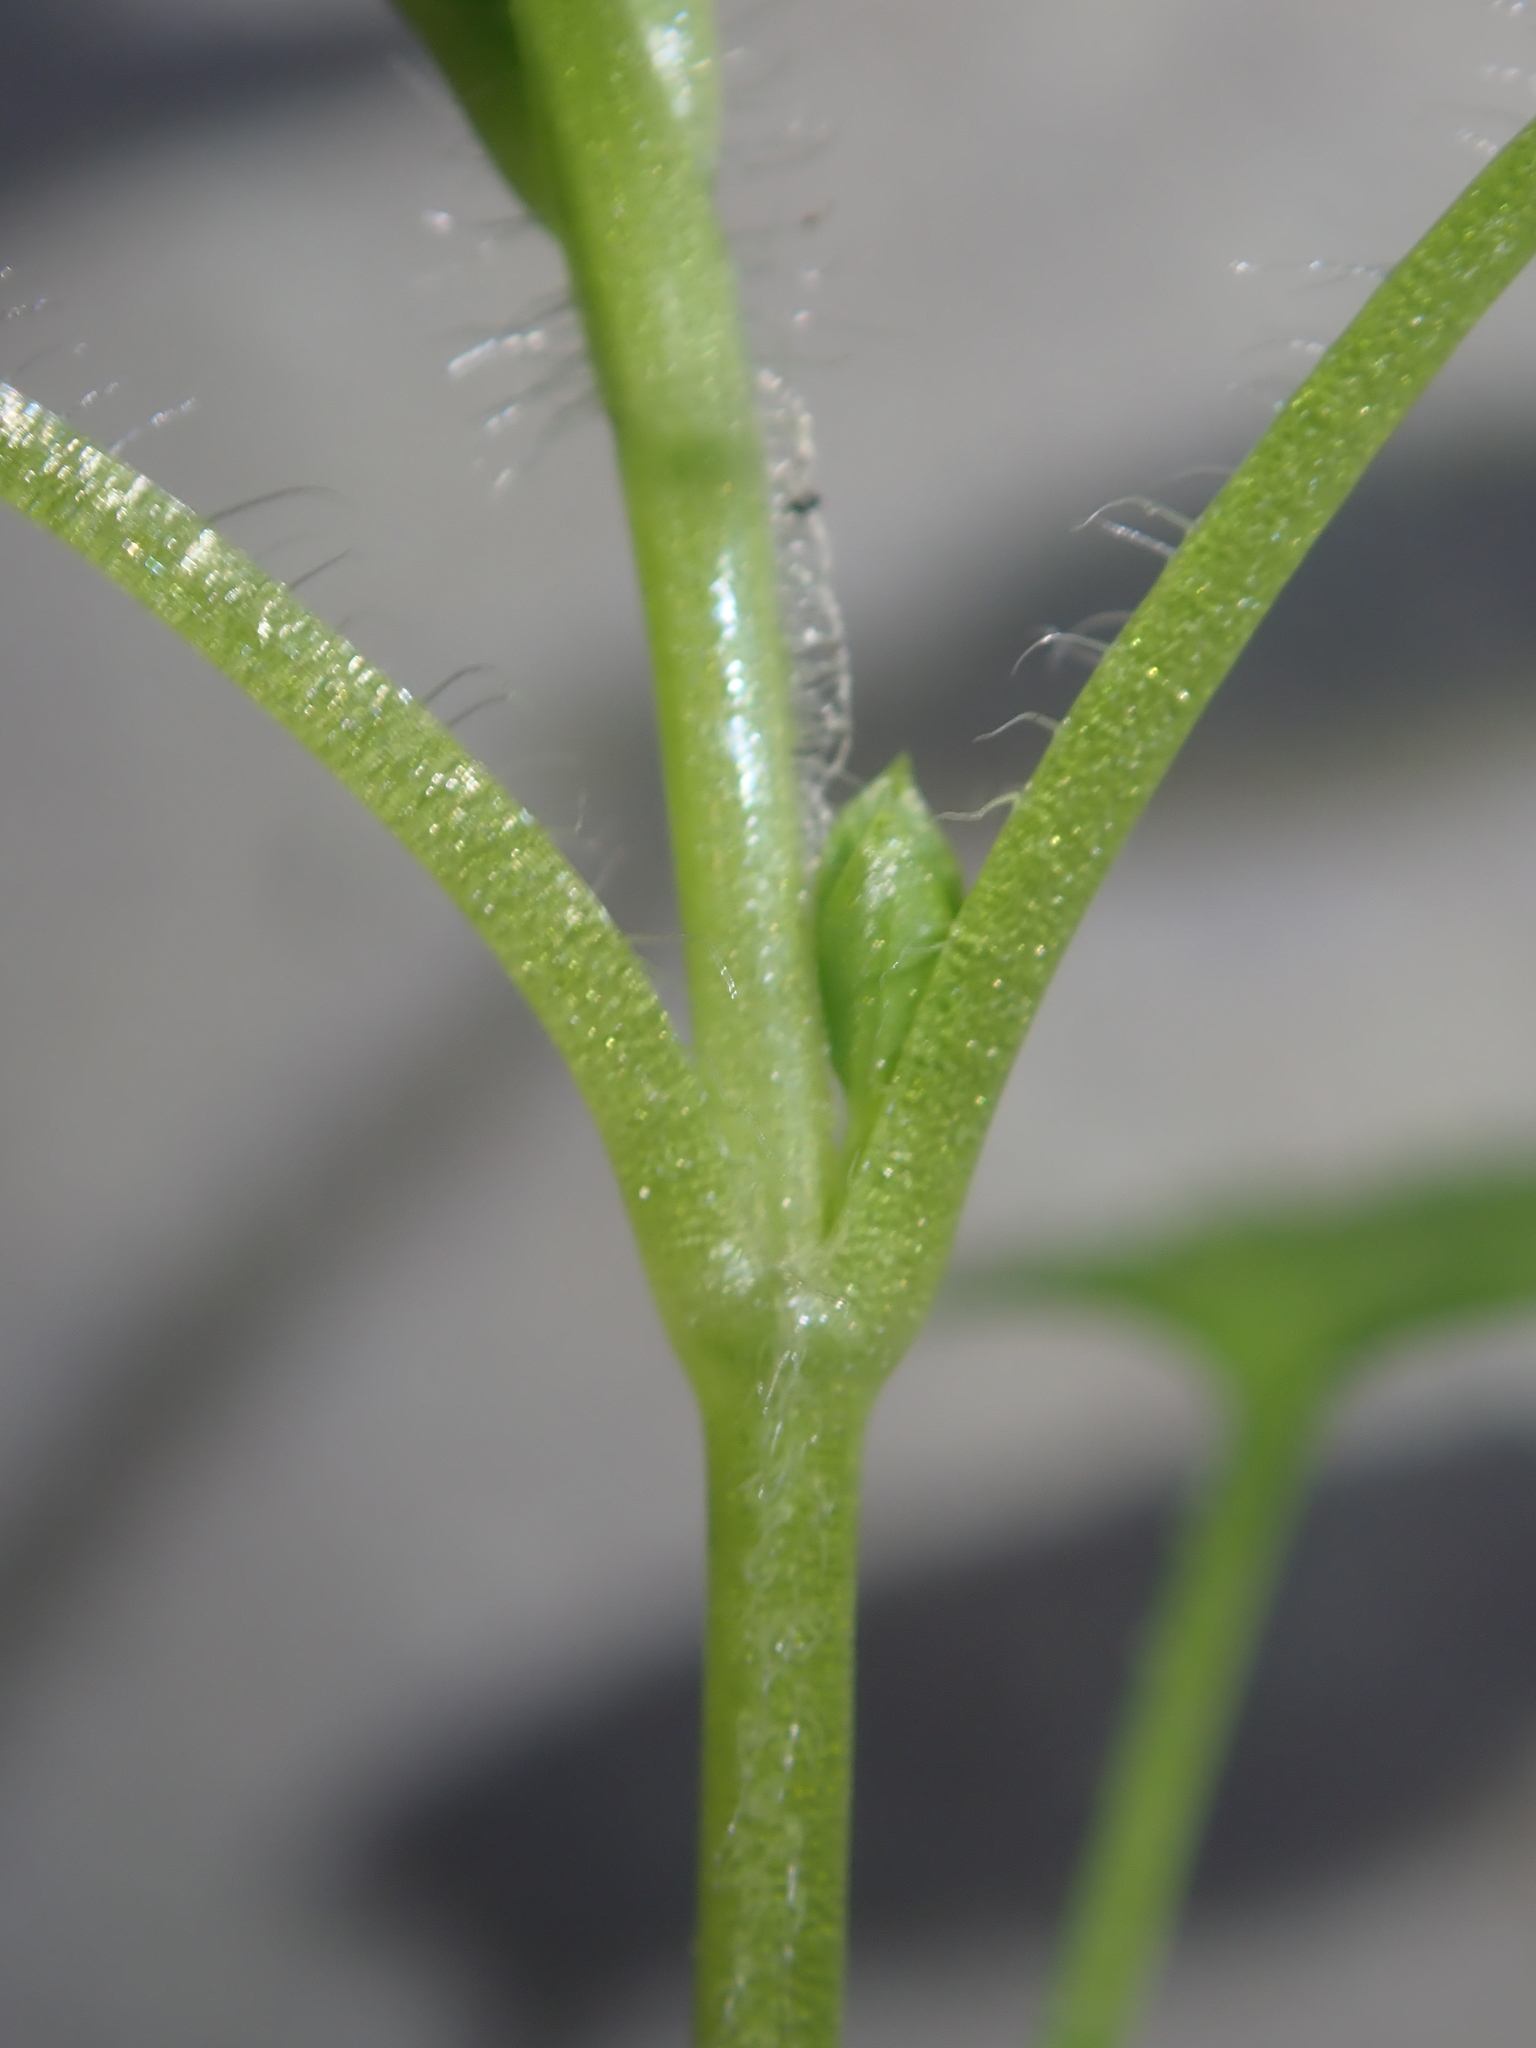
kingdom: Plantae
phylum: Tracheophyta
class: Magnoliopsida
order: Caryophyllales
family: Caryophyllaceae
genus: Stellaria
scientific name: Stellaria media
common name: Common chickweed
